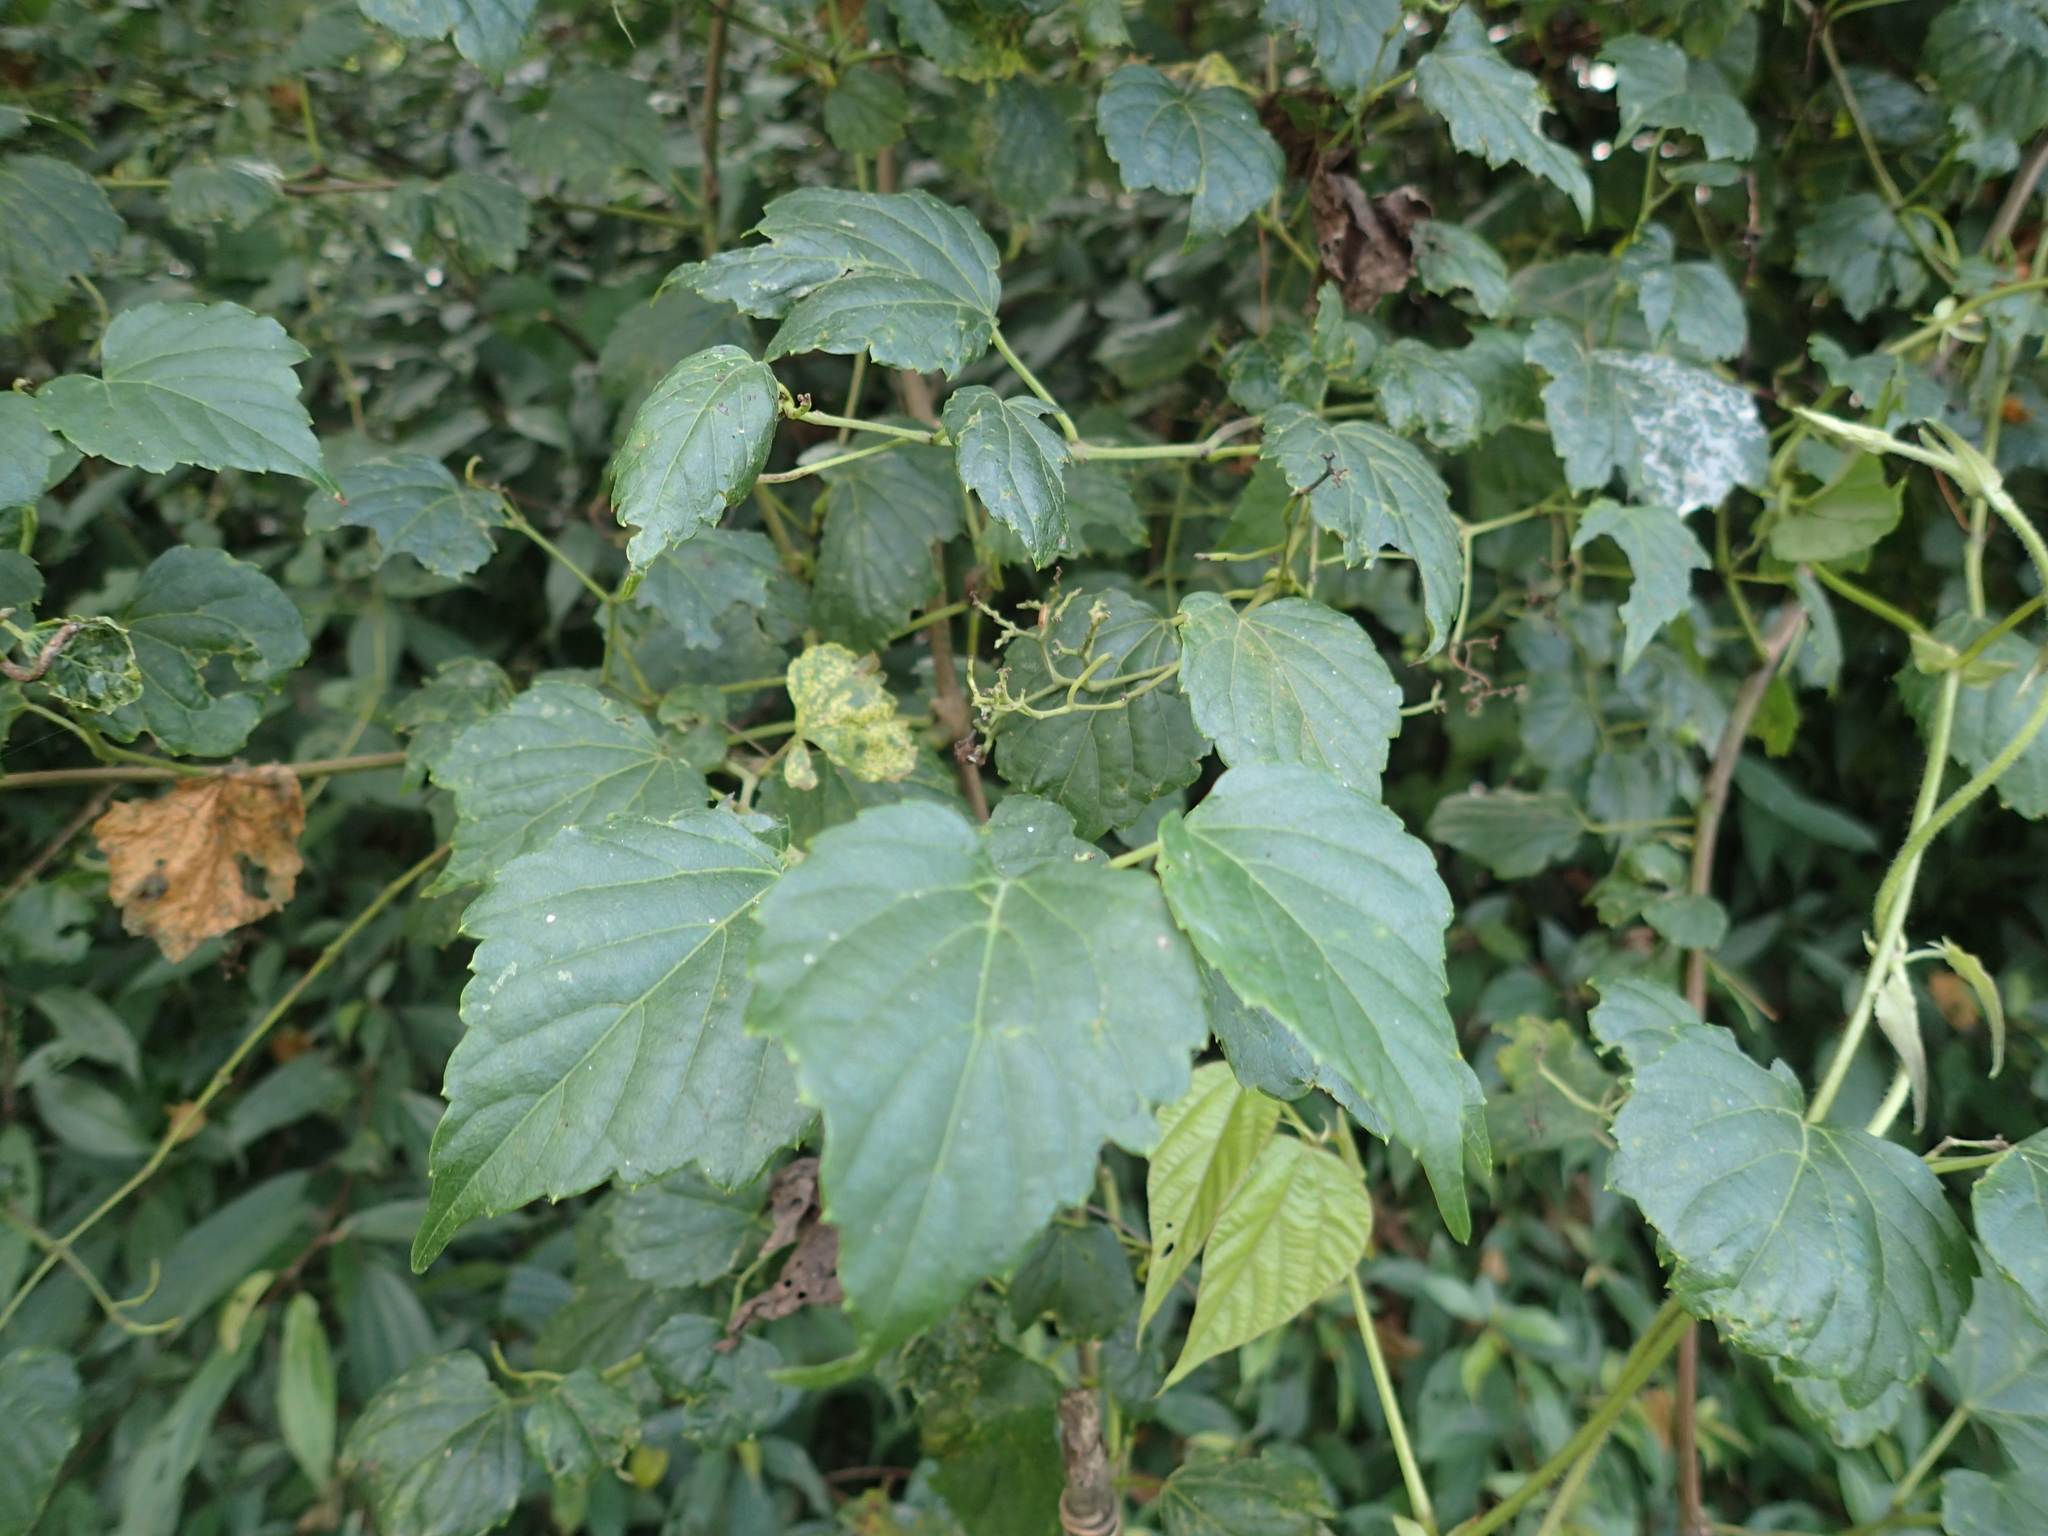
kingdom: Plantae
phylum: Tracheophyta
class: Magnoliopsida
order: Vitales
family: Vitaceae
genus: Ampelopsis
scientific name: Ampelopsis glandulosa
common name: Amur peppervine
